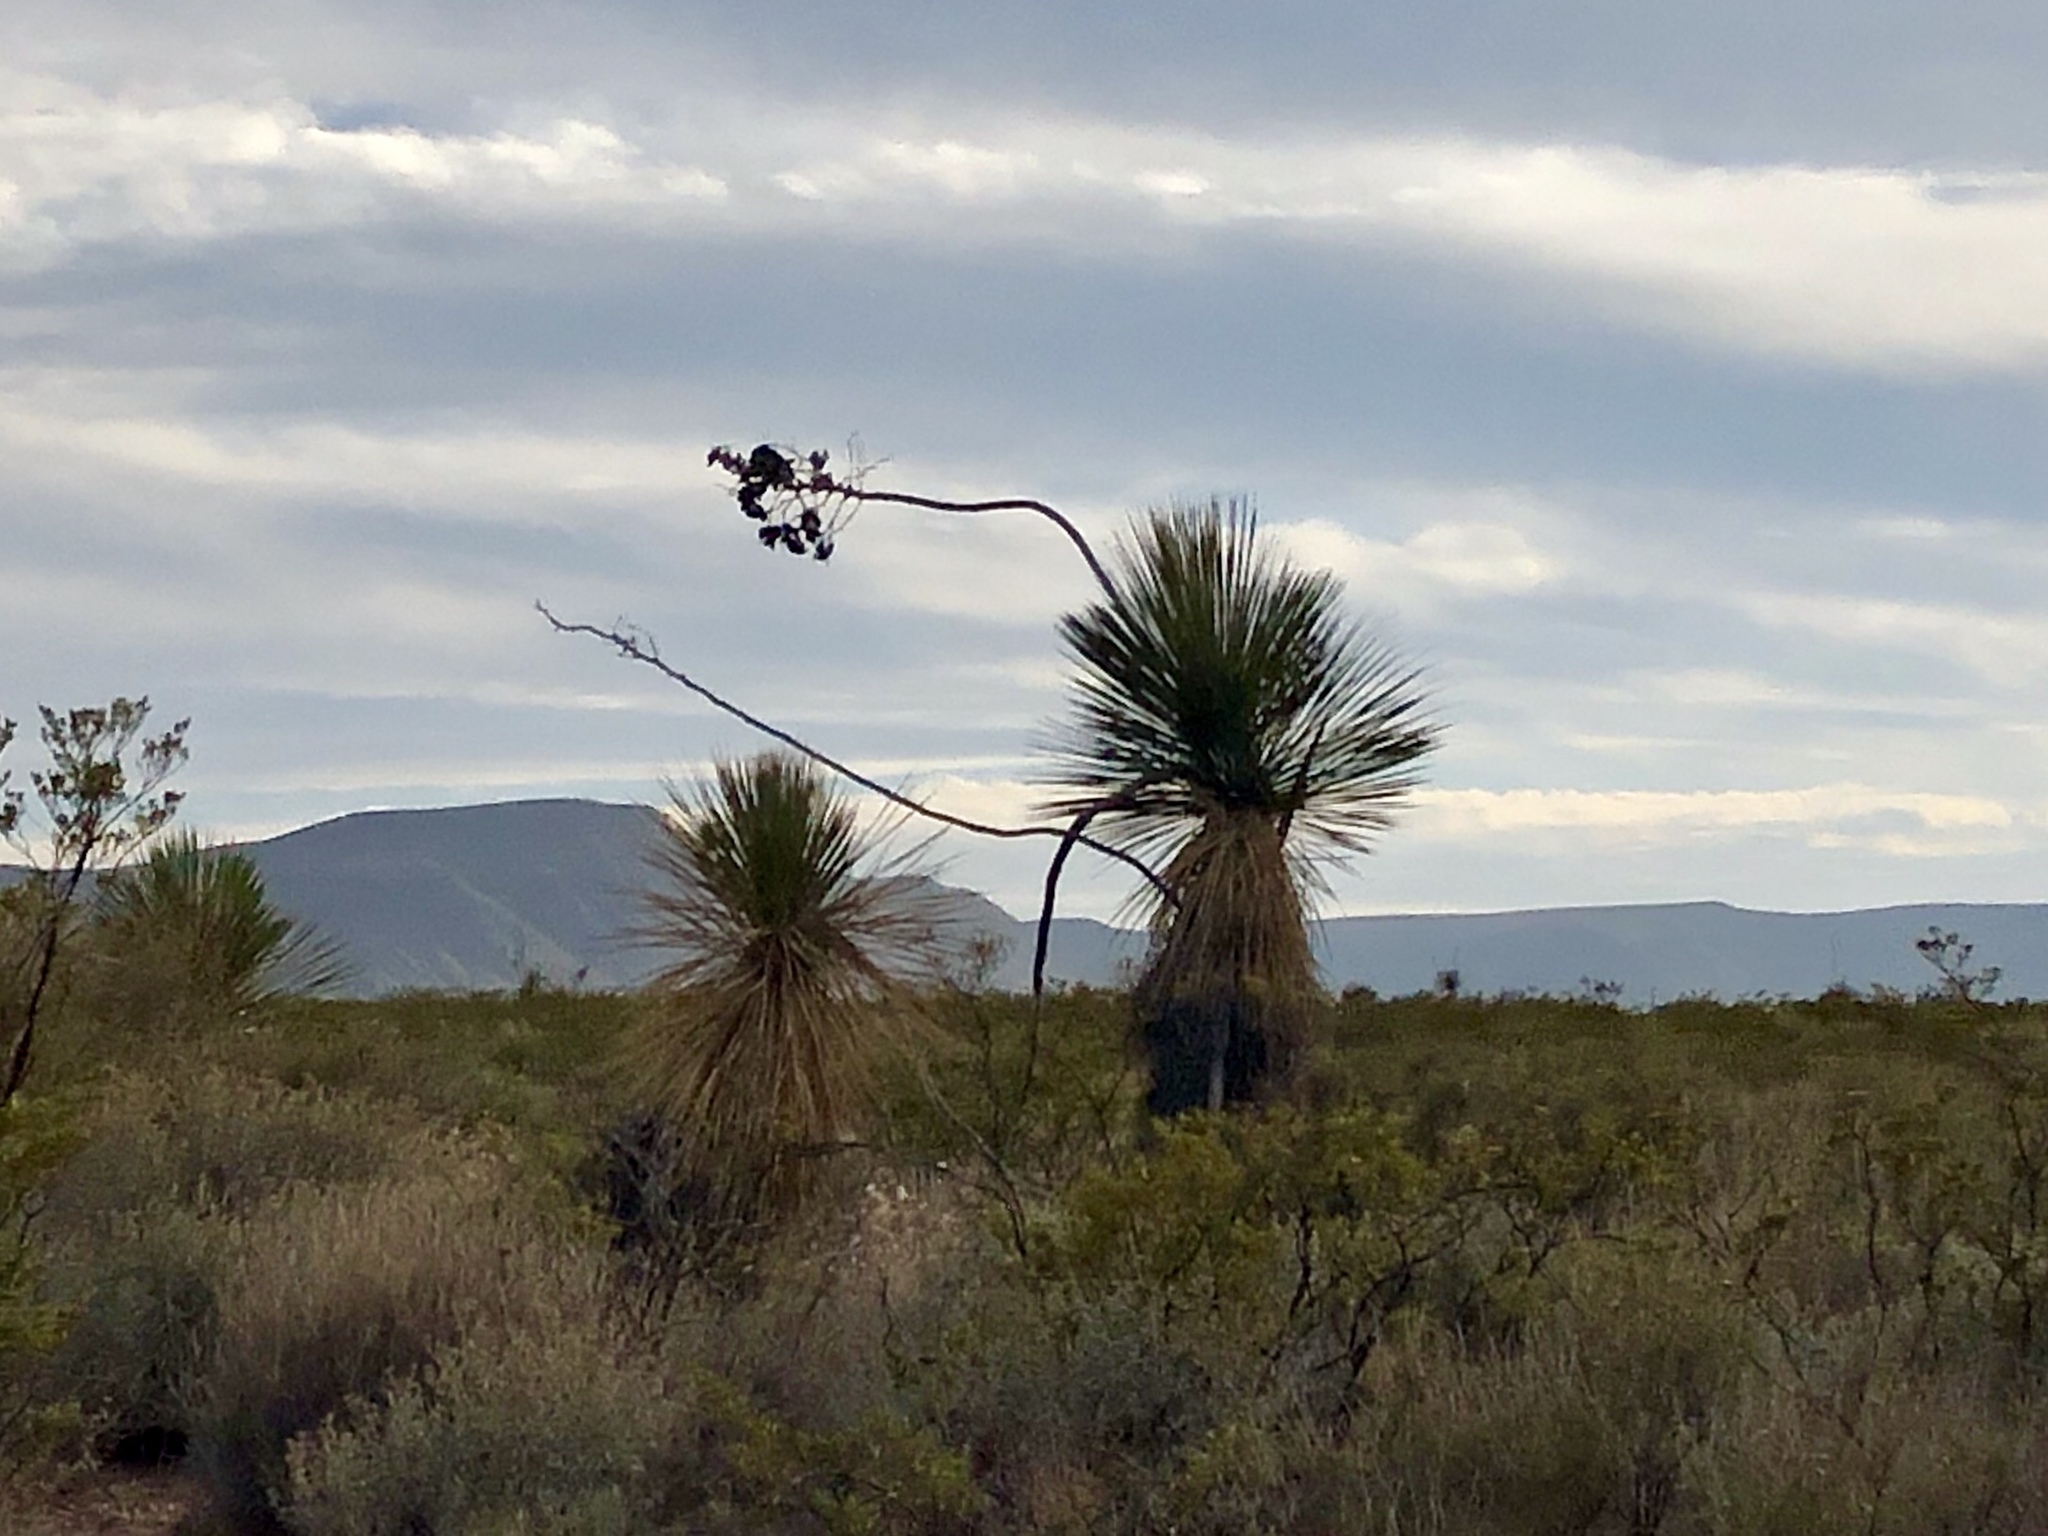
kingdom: Plantae
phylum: Tracheophyta
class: Liliopsida
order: Asparagales
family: Asparagaceae
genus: Yucca
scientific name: Yucca elata
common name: Palmella
